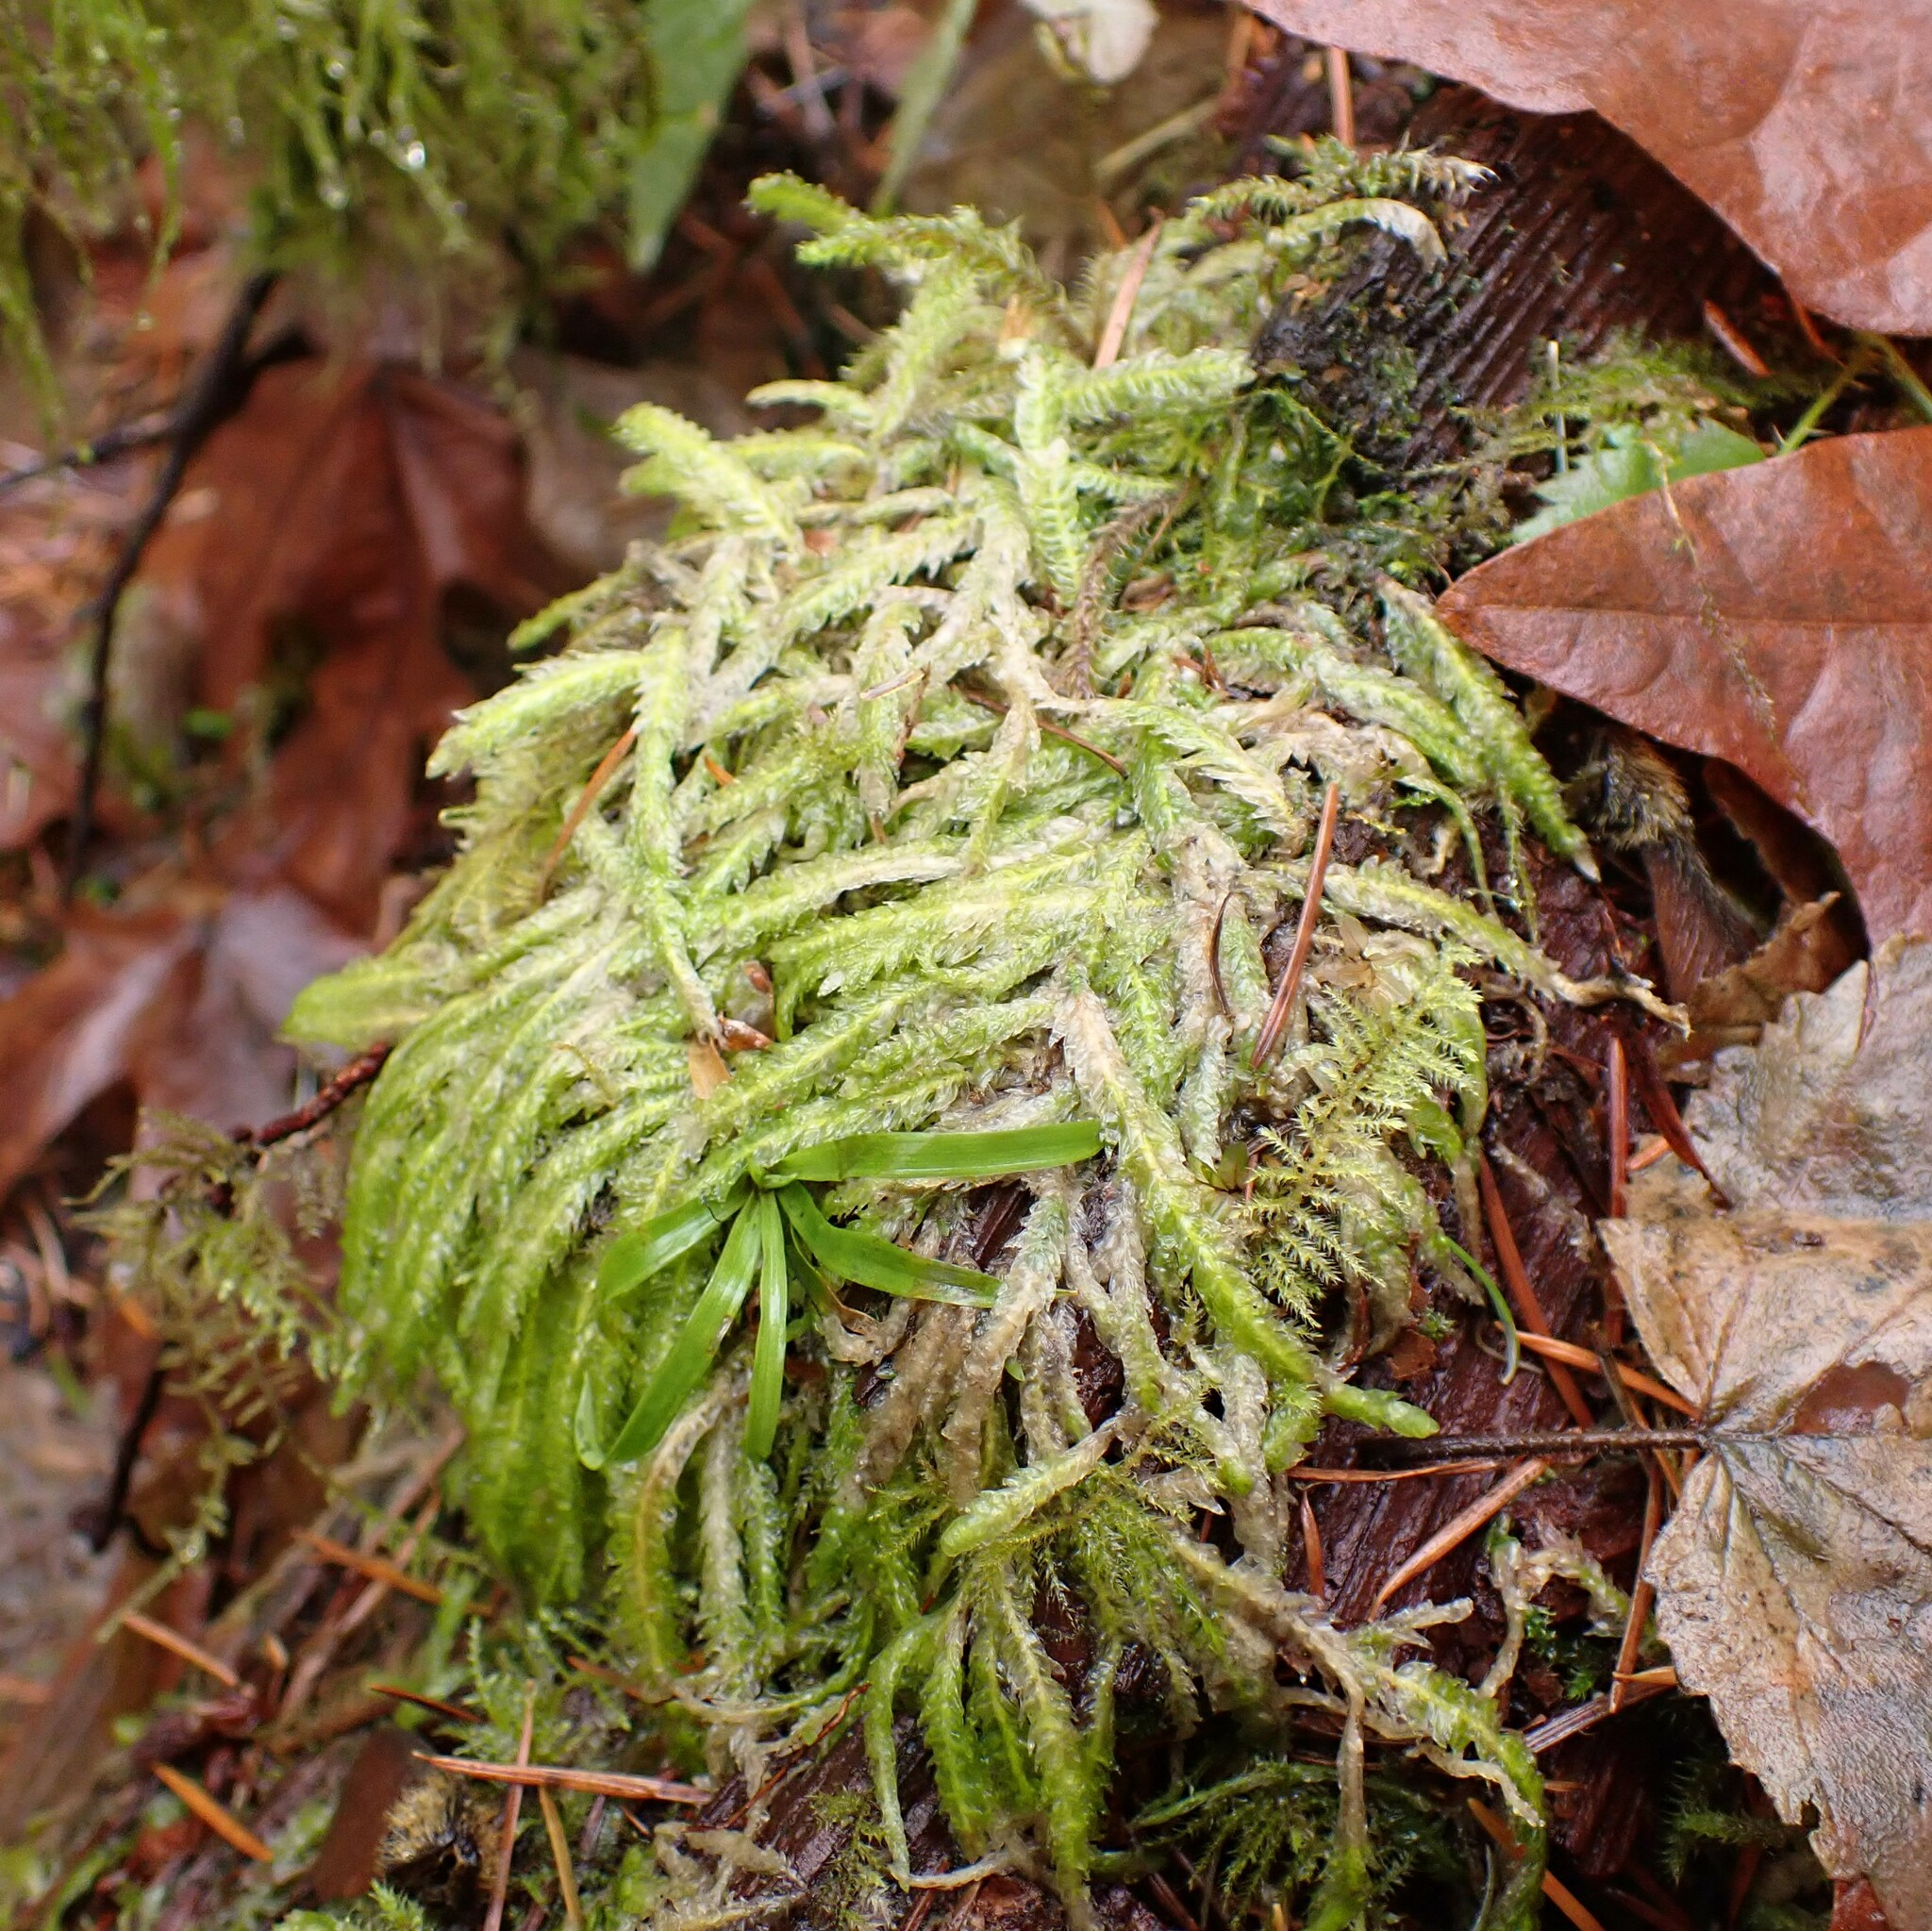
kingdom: Plantae
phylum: Bryophyta
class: Bryopsida
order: Hypnales
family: Plagiotheciaceae
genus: Plagiothecium
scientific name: Plagiothecium undulatum
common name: Waved silk-moss
